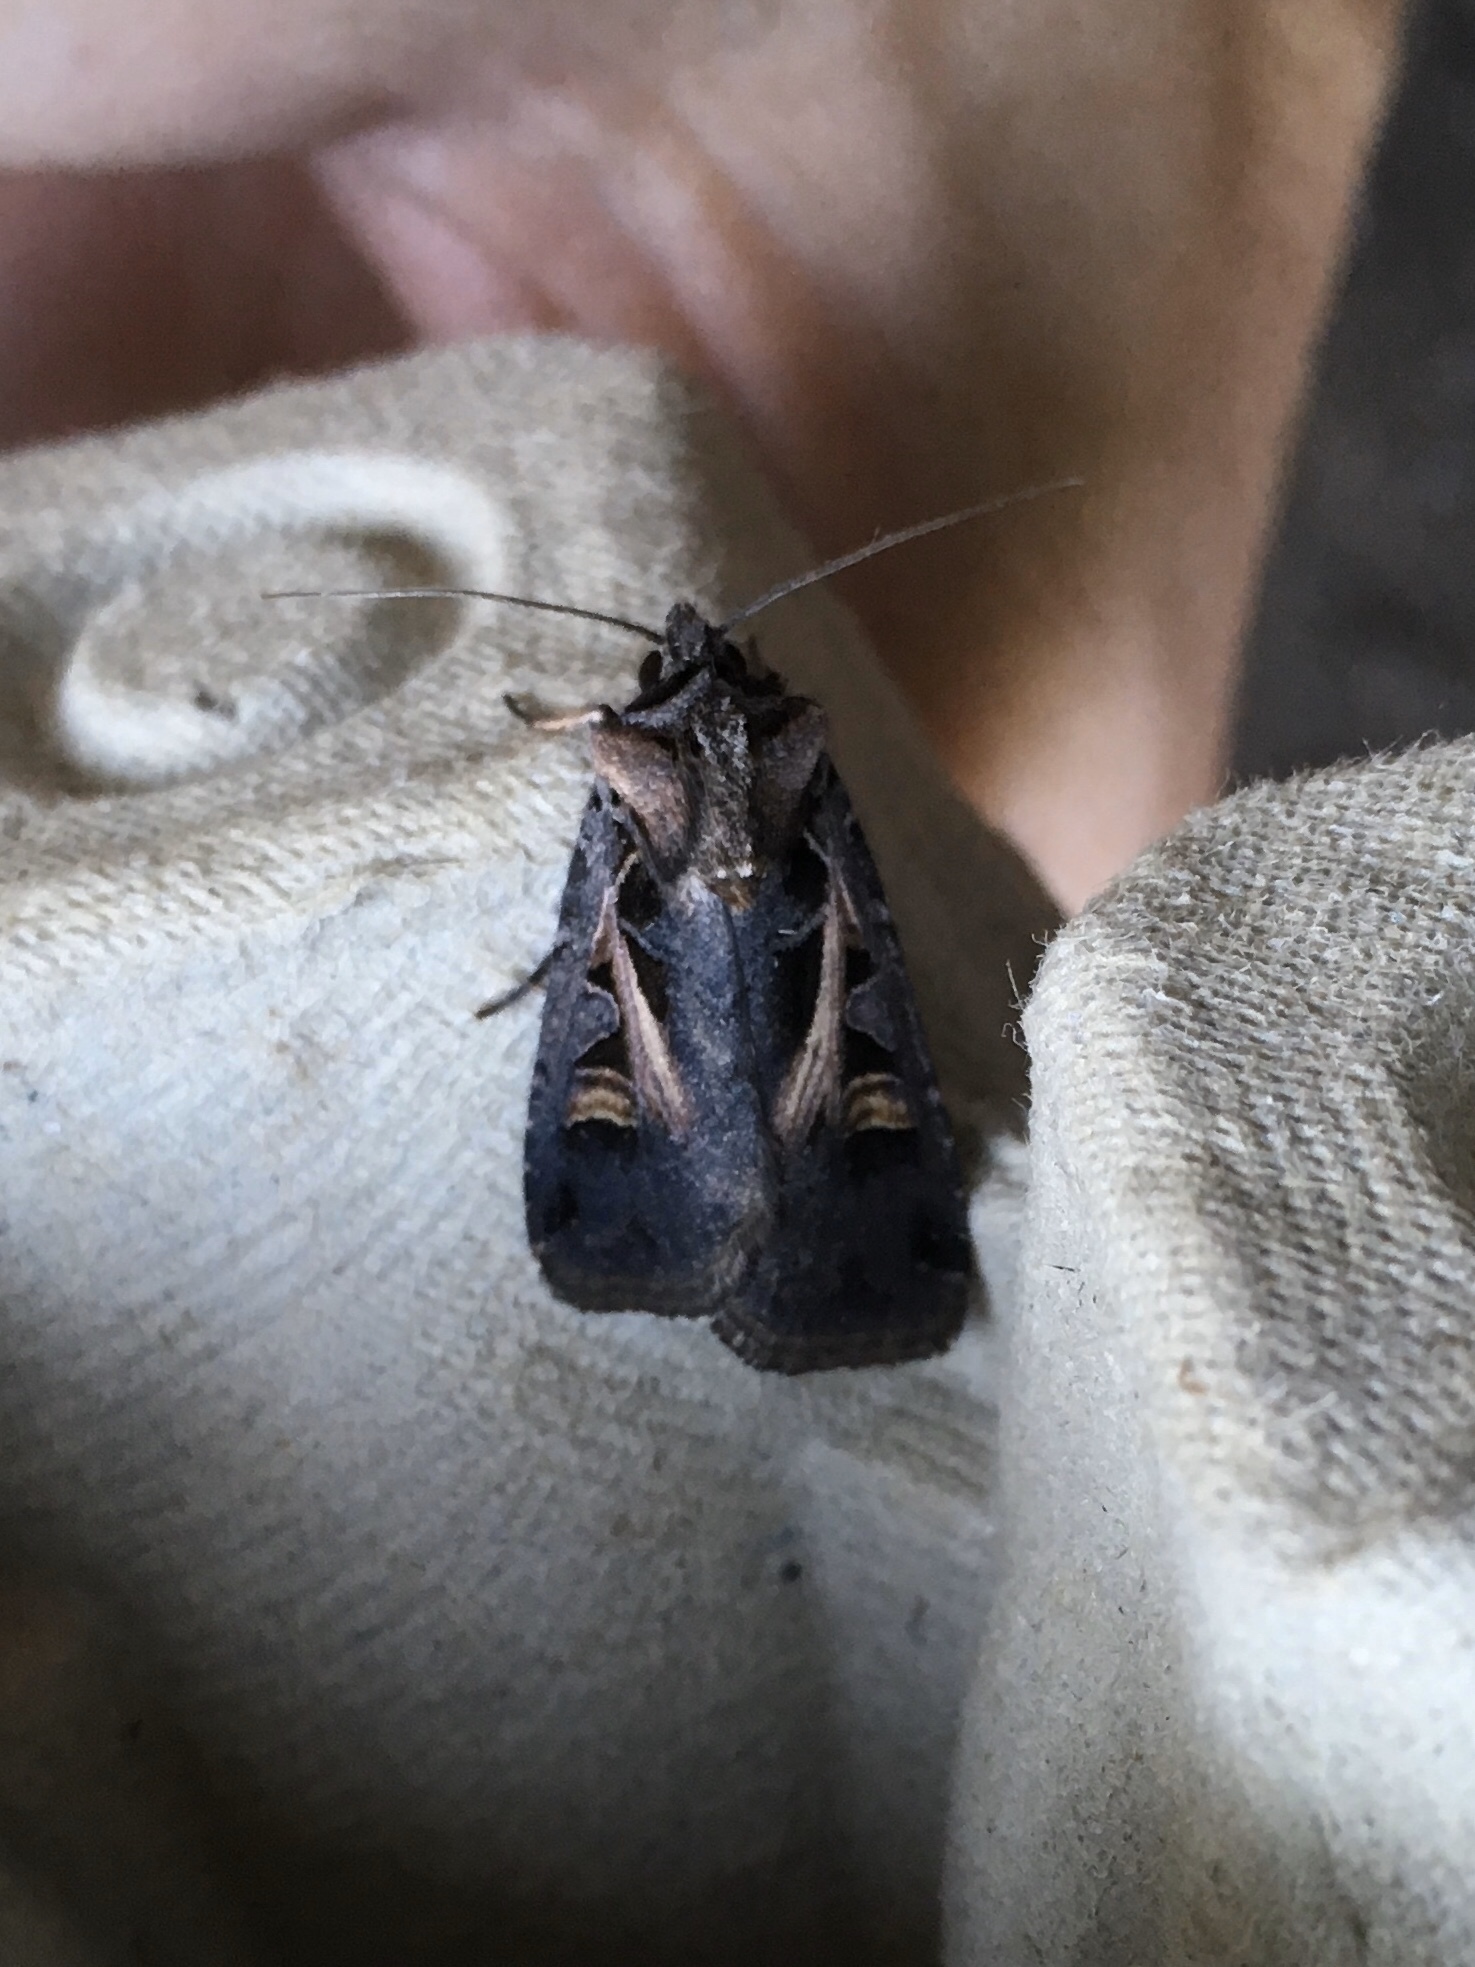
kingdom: Animalia
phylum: Arthropoda
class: Insecta
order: Lepidoptera
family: Noctuidae
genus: Feltia
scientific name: Feltia herilis
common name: Master's dart
